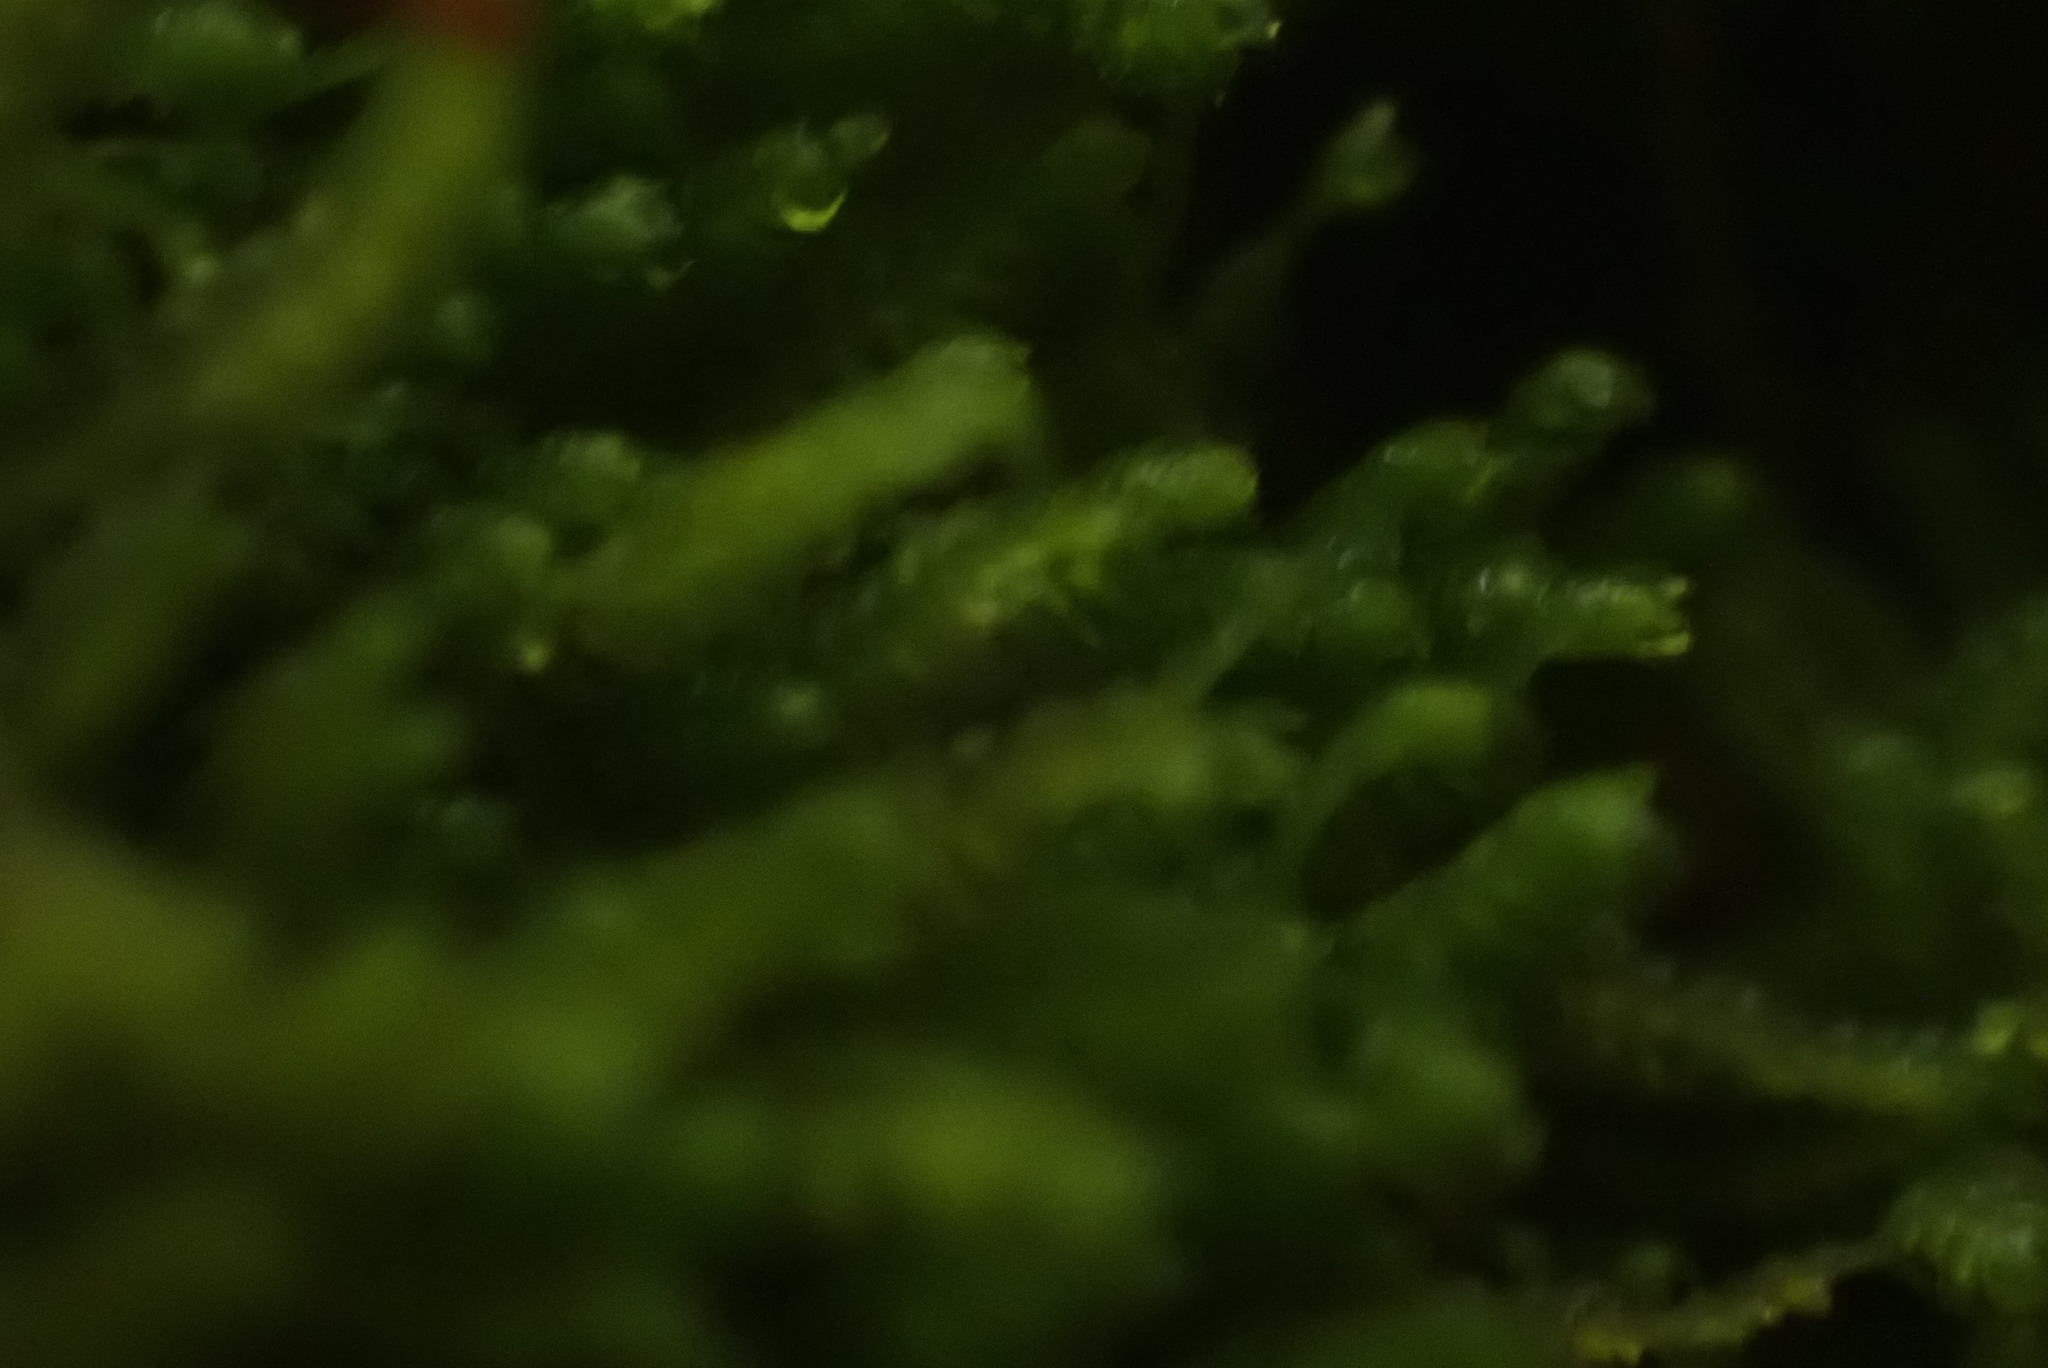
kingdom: Plantae
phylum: Marchantiophyta
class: Jungermanniopsida
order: Jungermanniales
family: Lepidoziaceae
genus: Bazzania
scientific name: Bazzania denudata
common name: Naked whipwort
